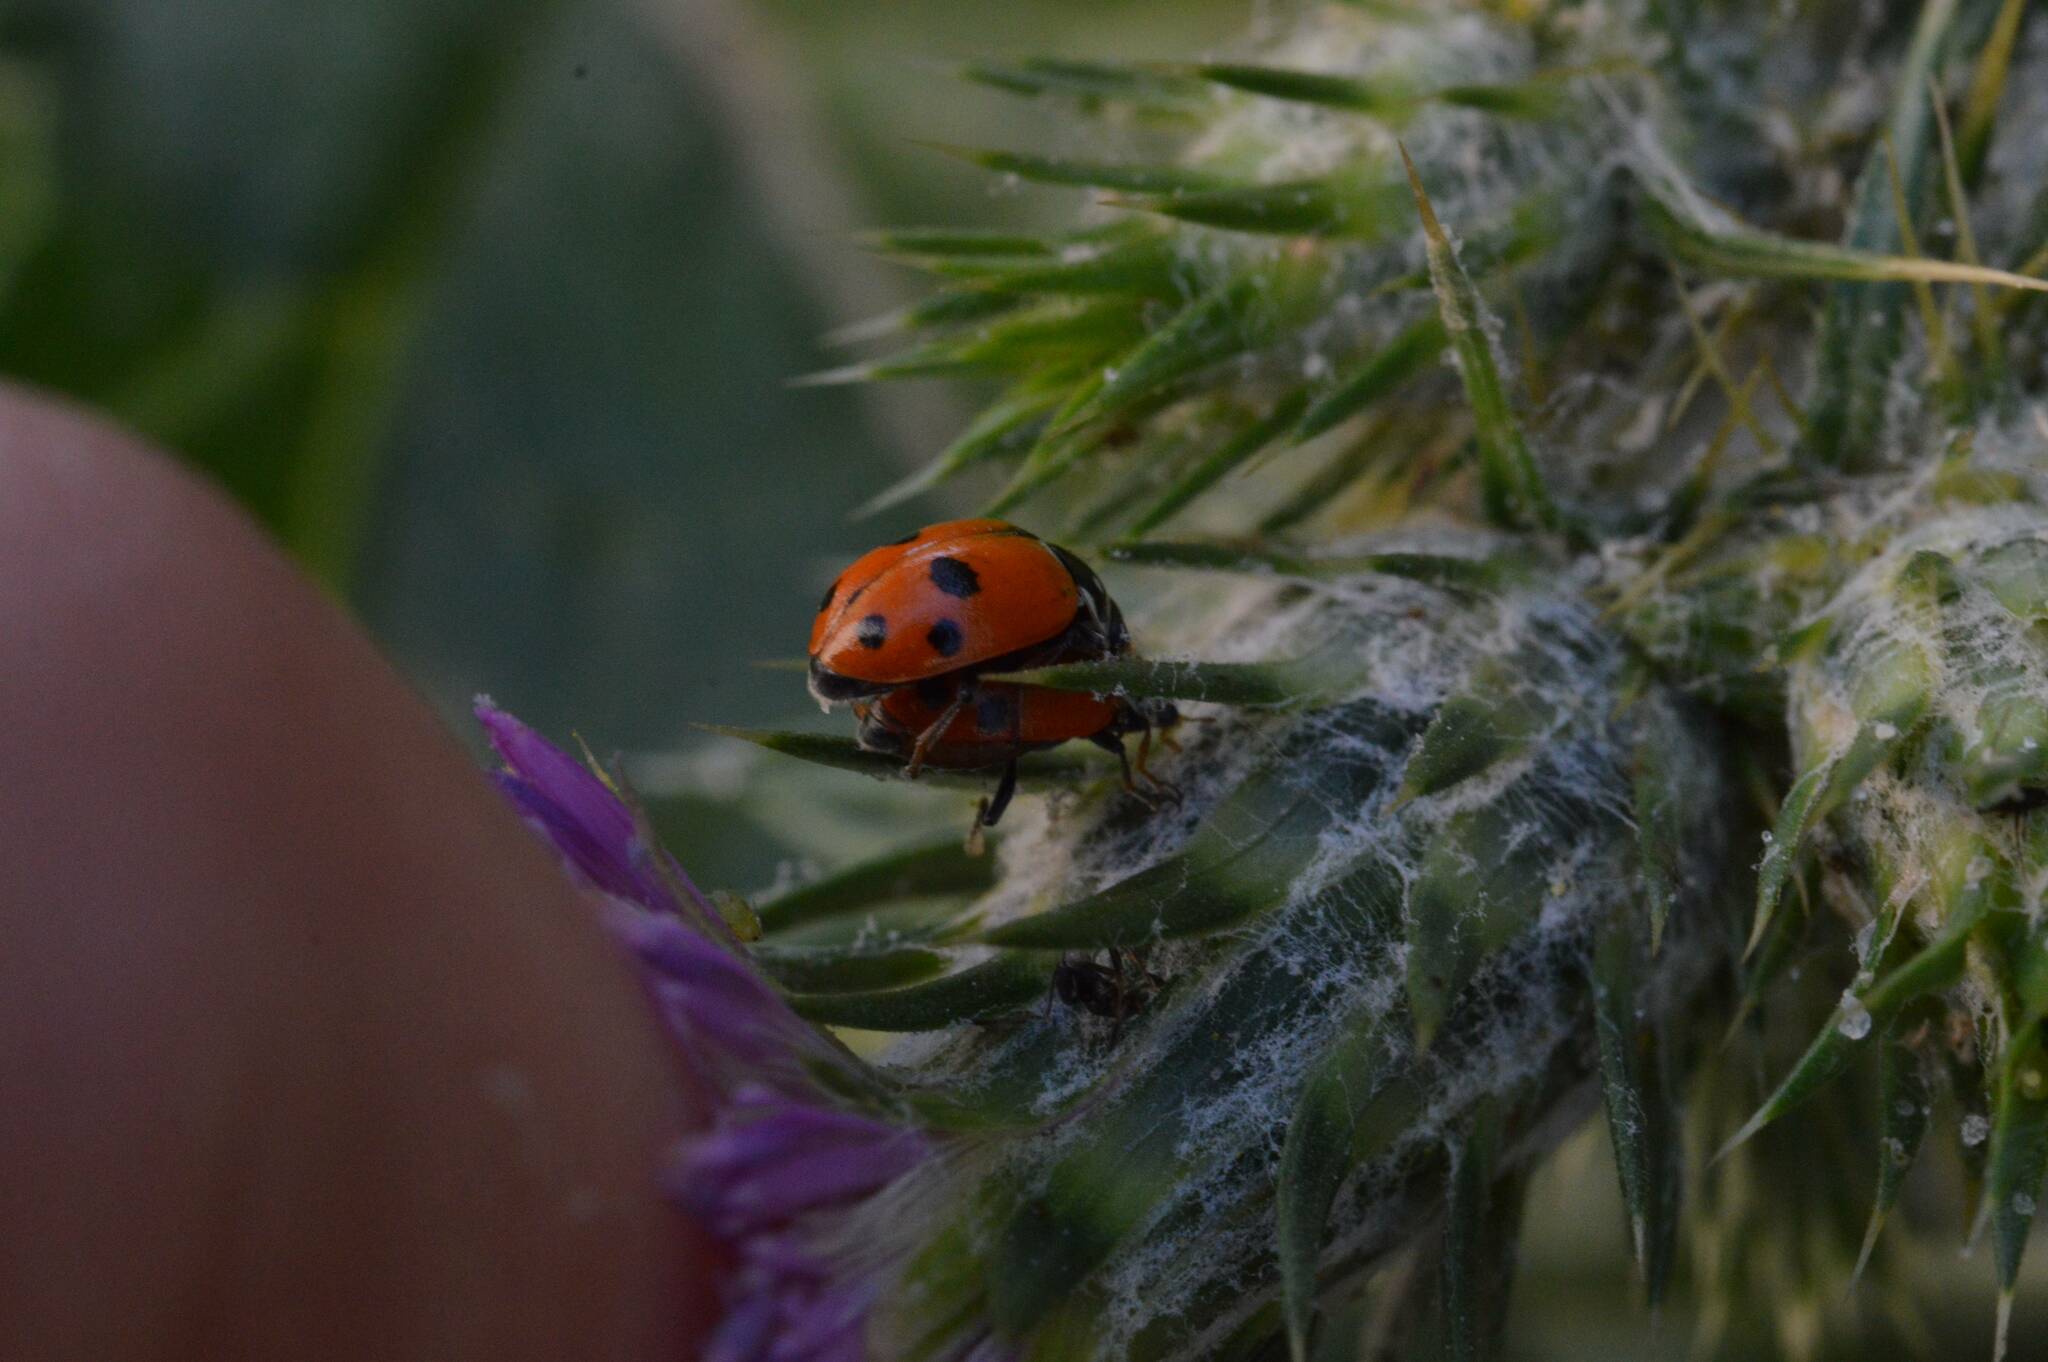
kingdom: Animalia
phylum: Arthropoda
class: Insecta
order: Coleoptera
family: Coccinellidae
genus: Hippodamia
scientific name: Hippodamia variegata
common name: Ladybird beetle
